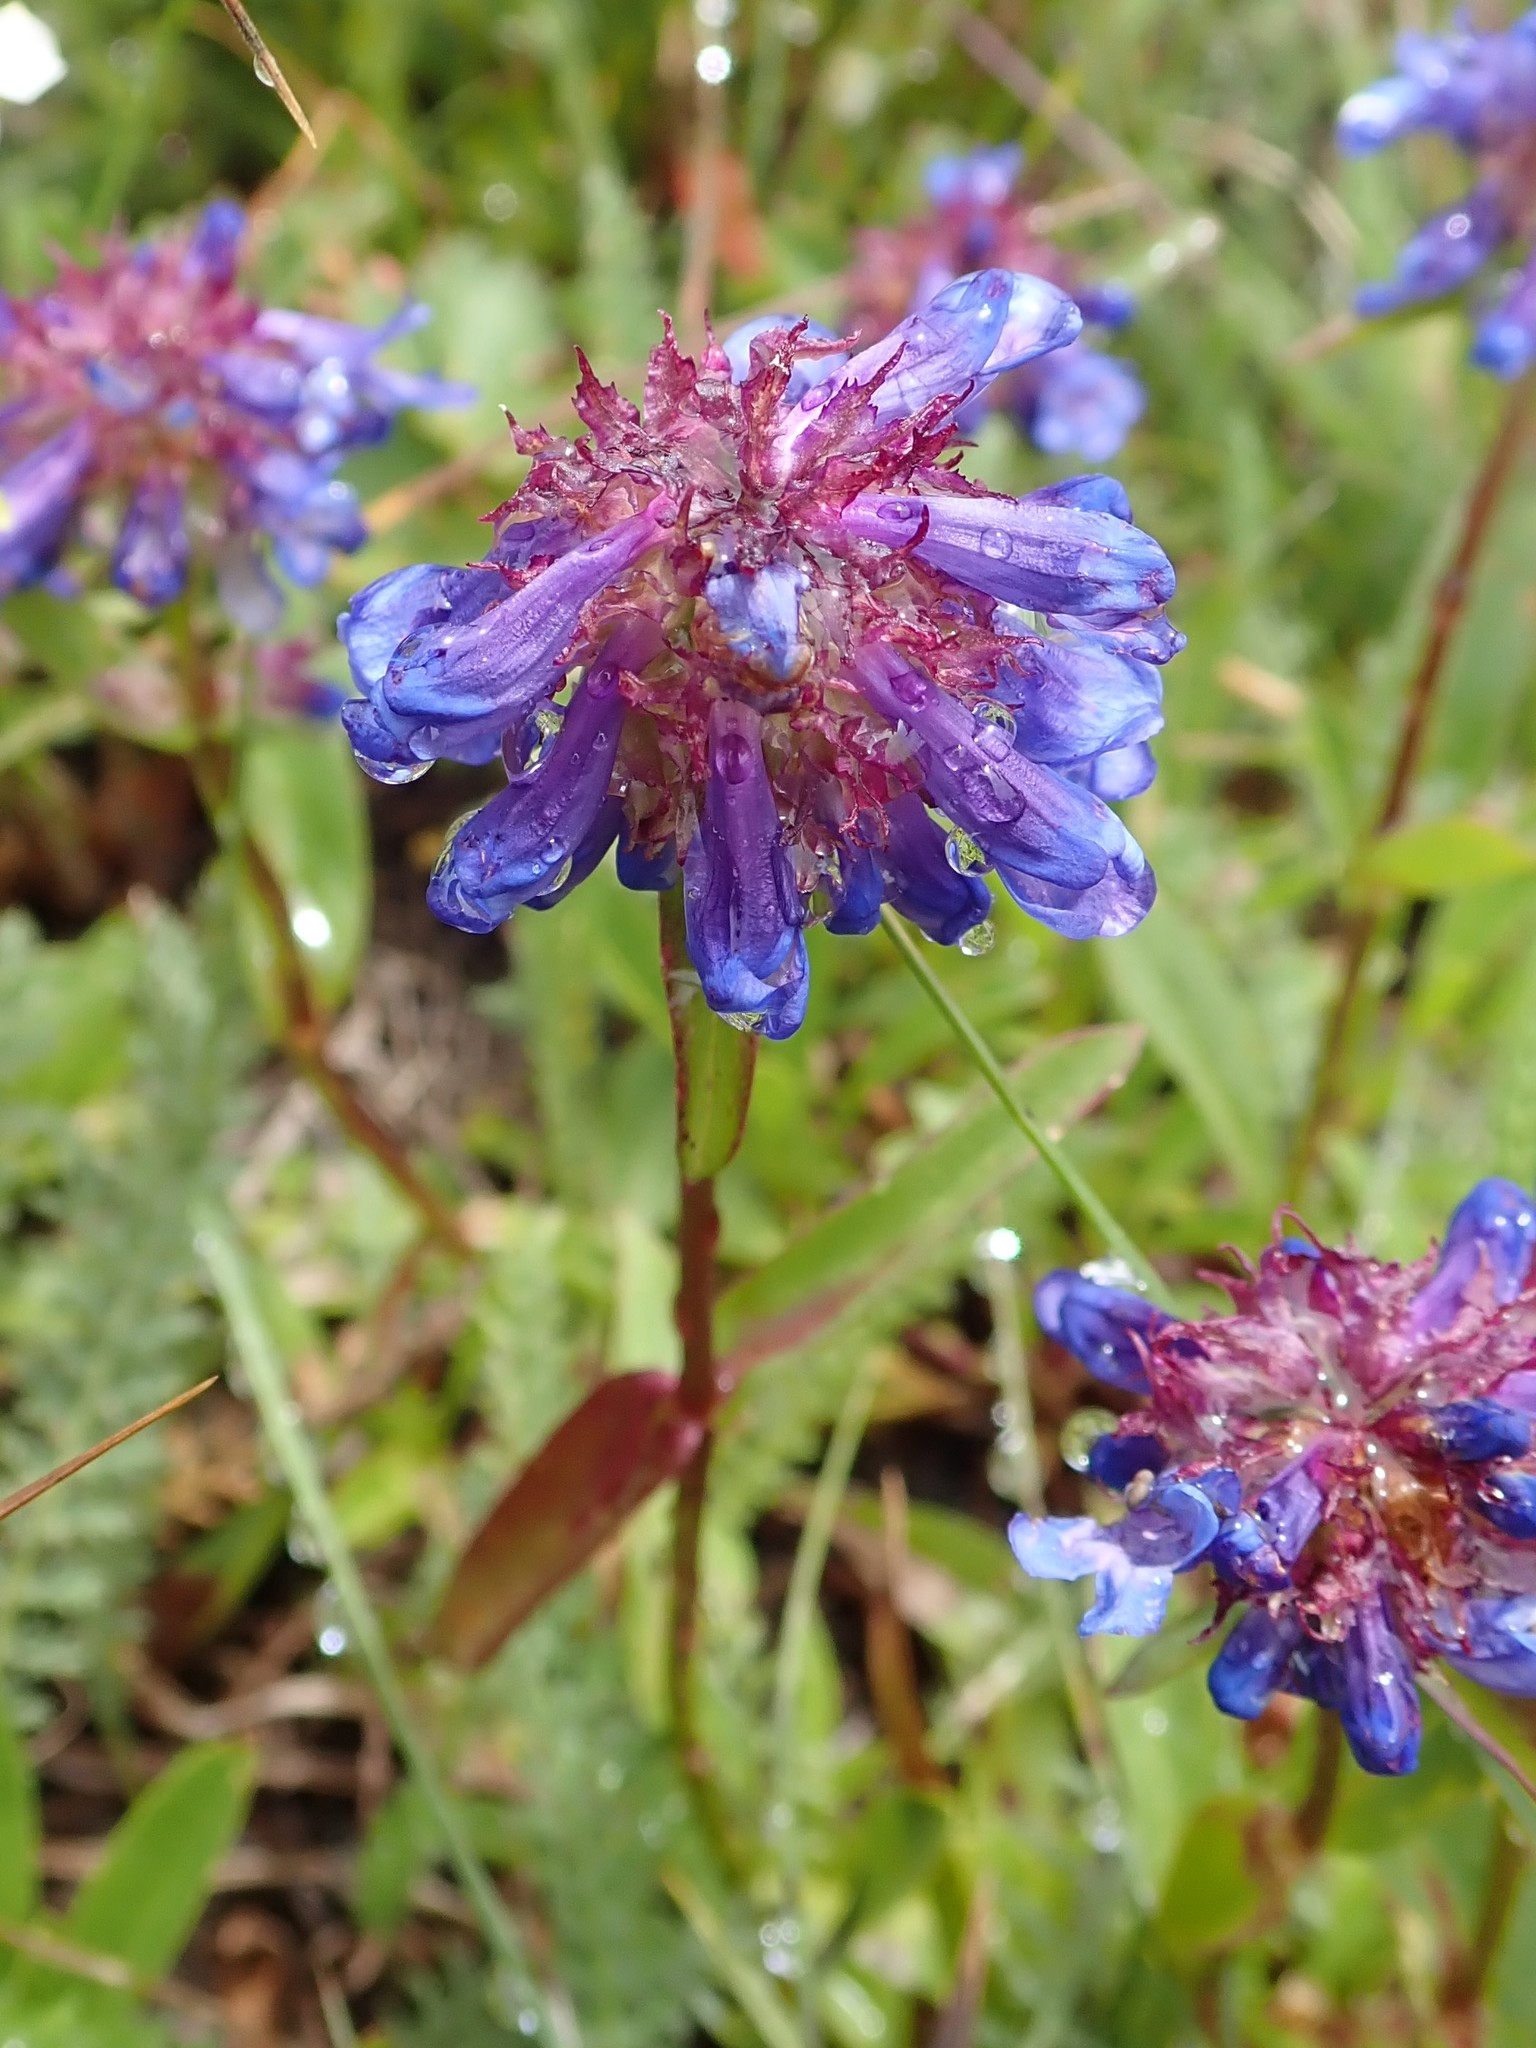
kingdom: Plantae
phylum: Tracheophyta
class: Magnoliopsida
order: Lamiales
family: Plantaginaceae
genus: Penstemon
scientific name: Penstemon procerus
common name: Small-flower penstemon
